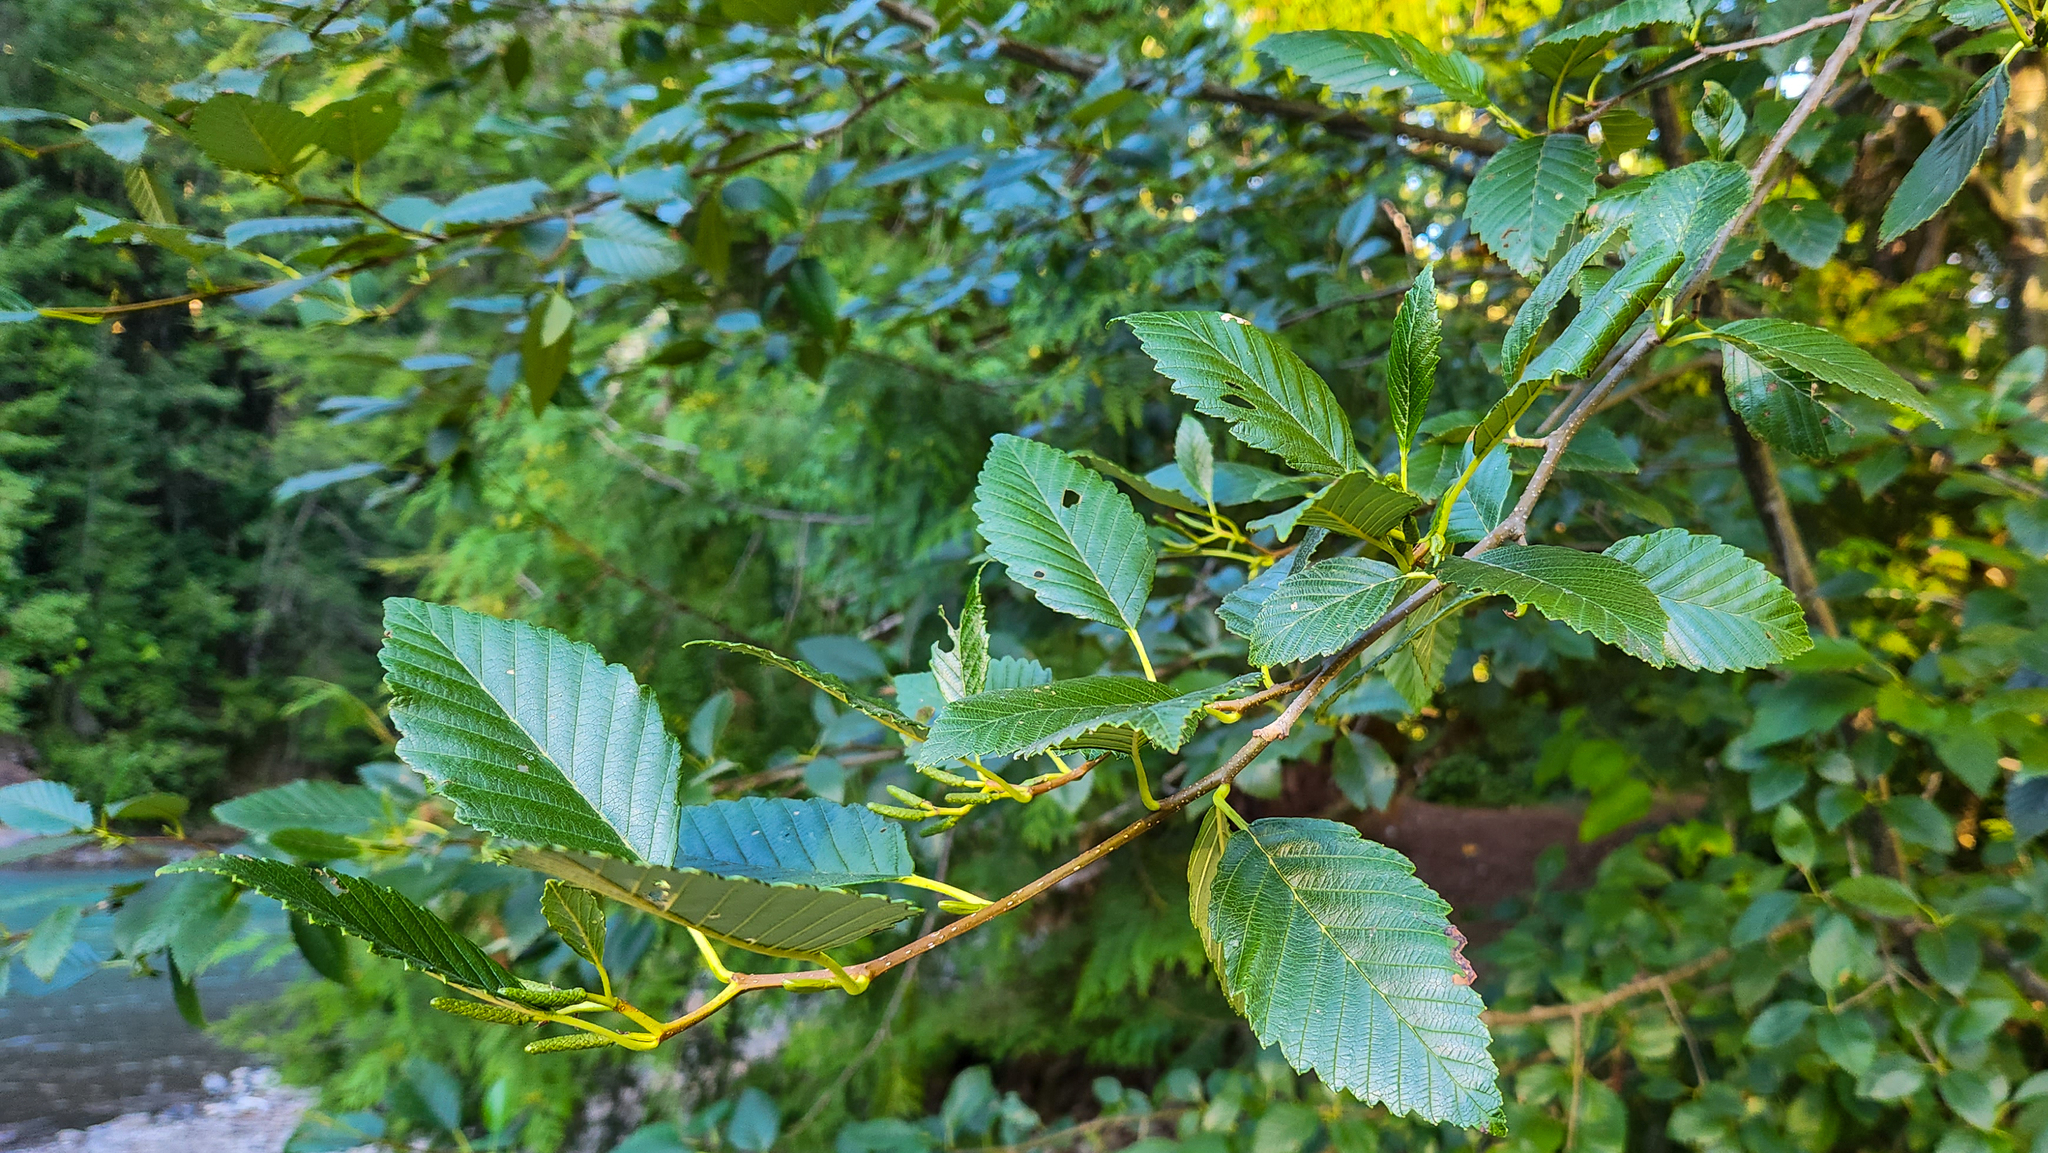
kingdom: Plantae
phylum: Tracheophyta
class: Magnoliopsida
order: Fagales
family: Betulaceae
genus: Alnus
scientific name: Alnus rubra
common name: Red alder
